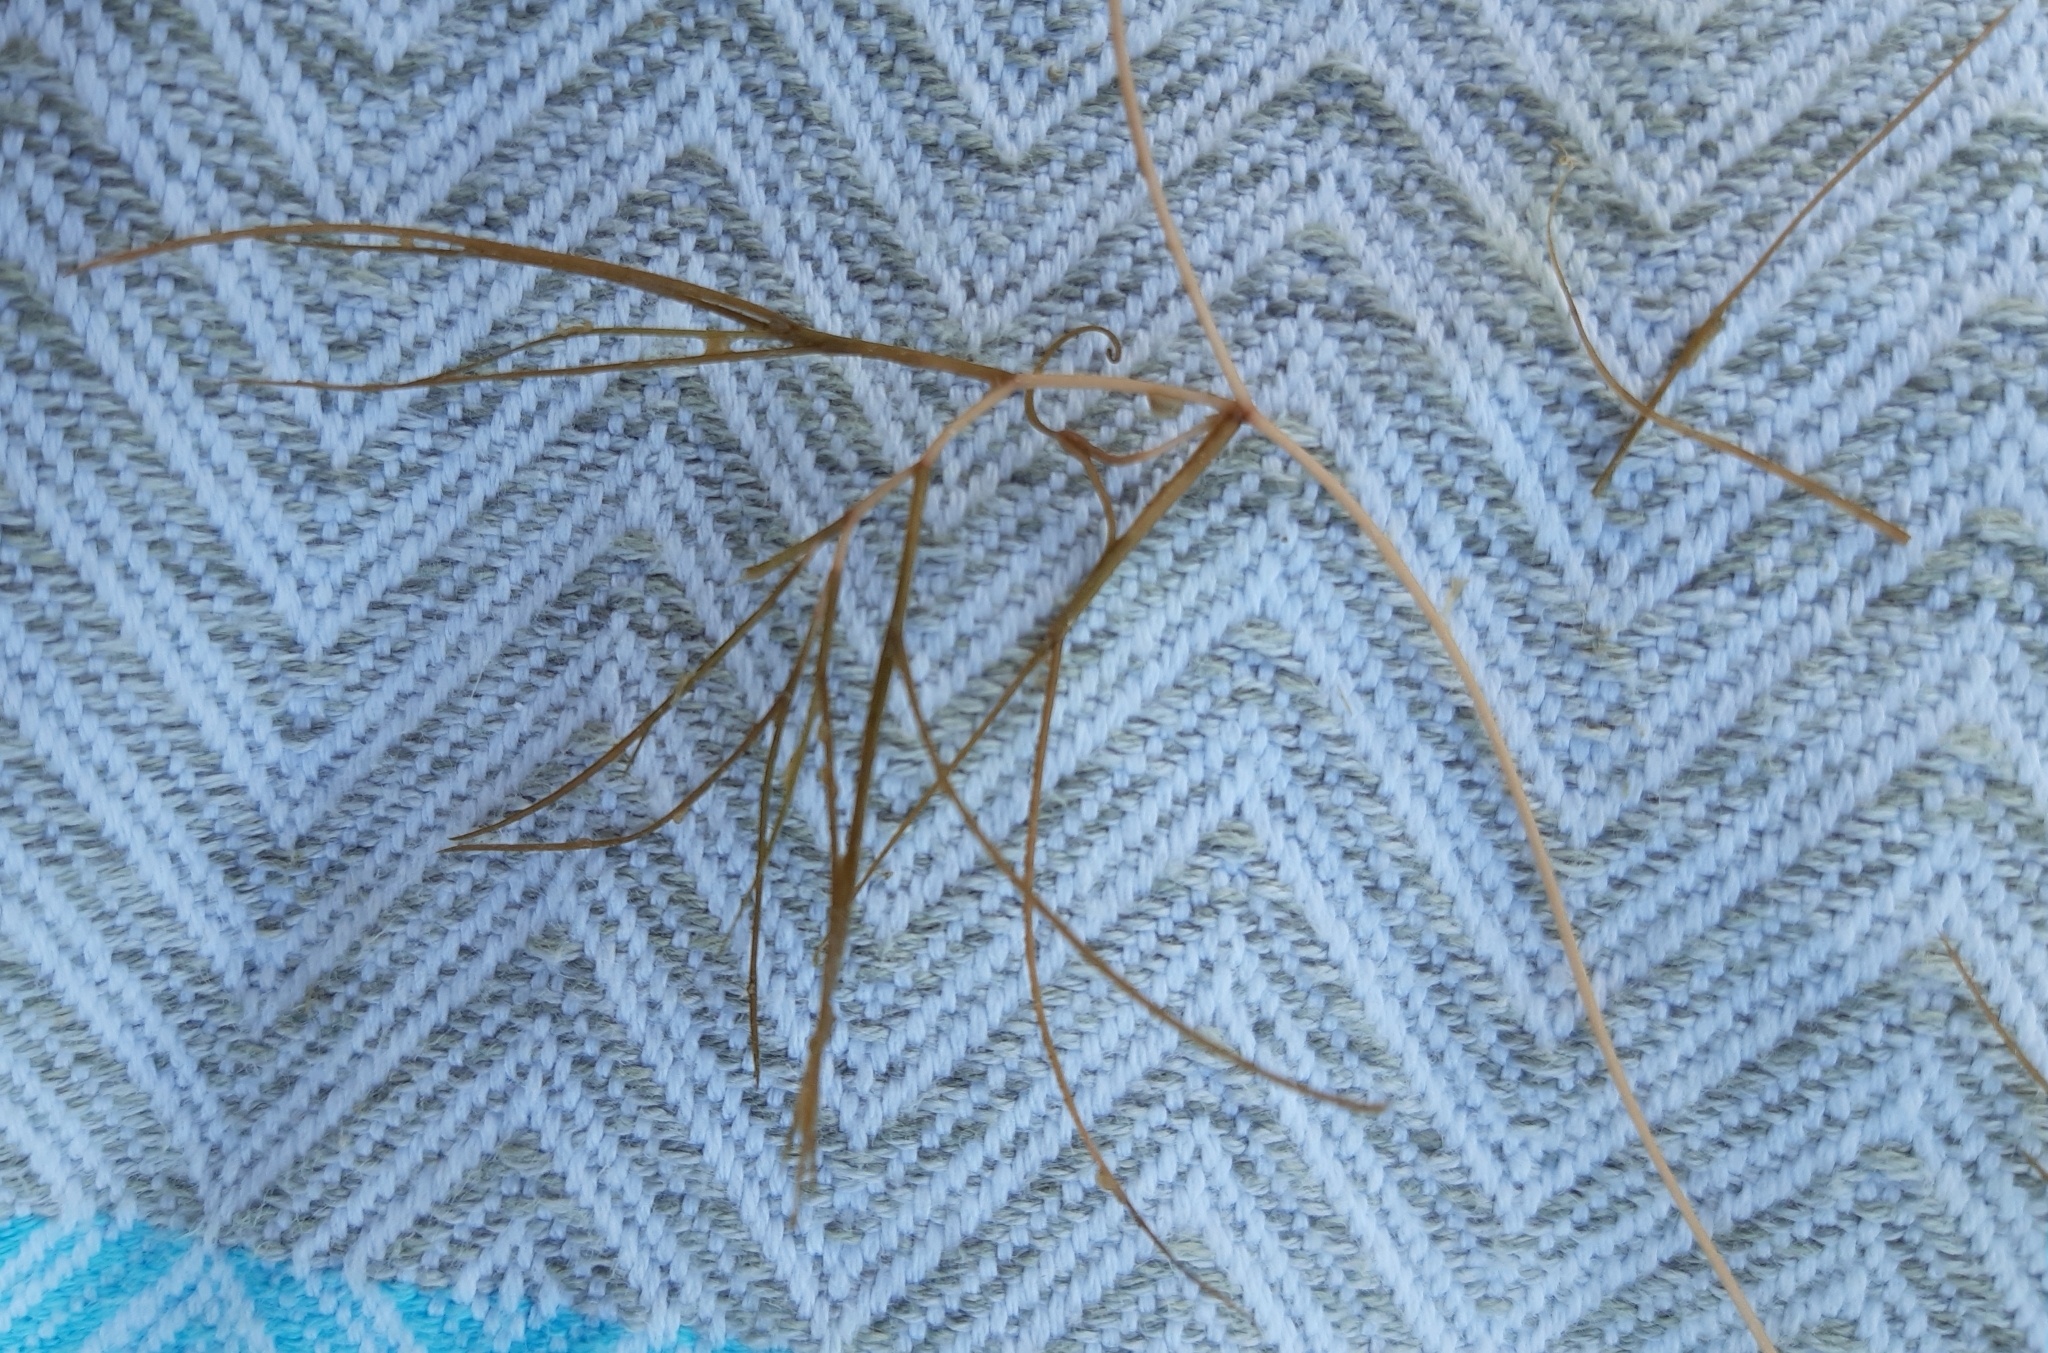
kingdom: Plantae
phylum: Tracheophyta
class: Liliopsida
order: Alismatales
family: Potamogetonaceae
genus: Stuckenia
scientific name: Stuckenia pectinata
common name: Sago pondweed
